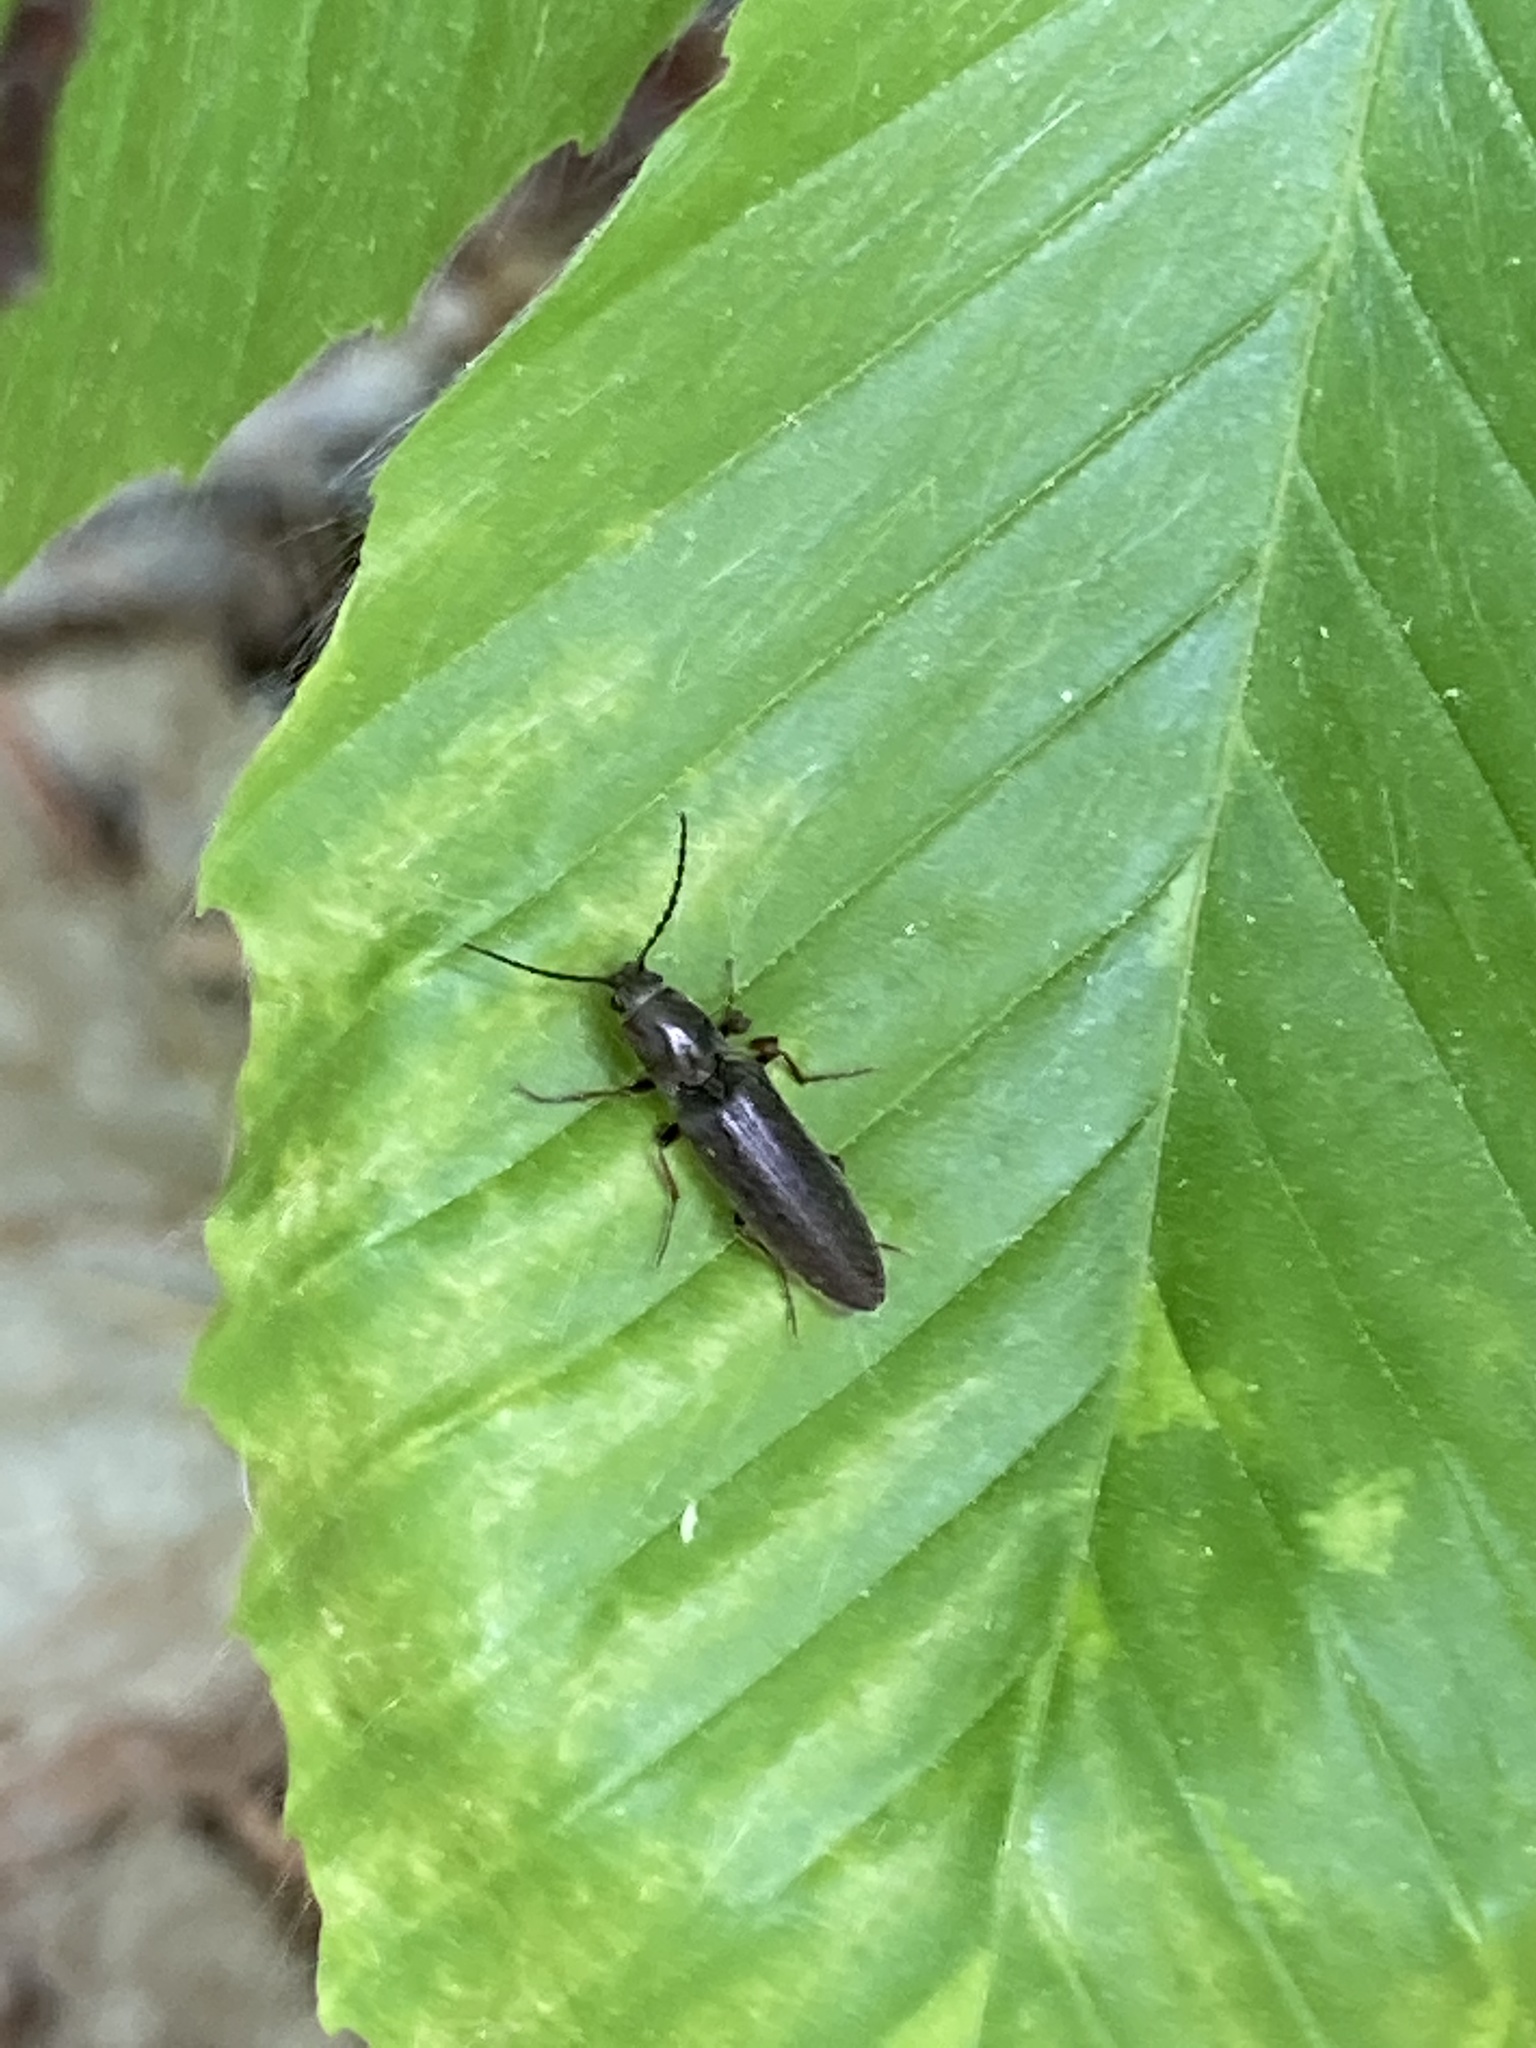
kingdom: Animalia
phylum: Arthropoda
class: Insecta
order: Coleoptera
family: Elateridae
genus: Sylvanelater
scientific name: Sylvanelater cylindriformis
